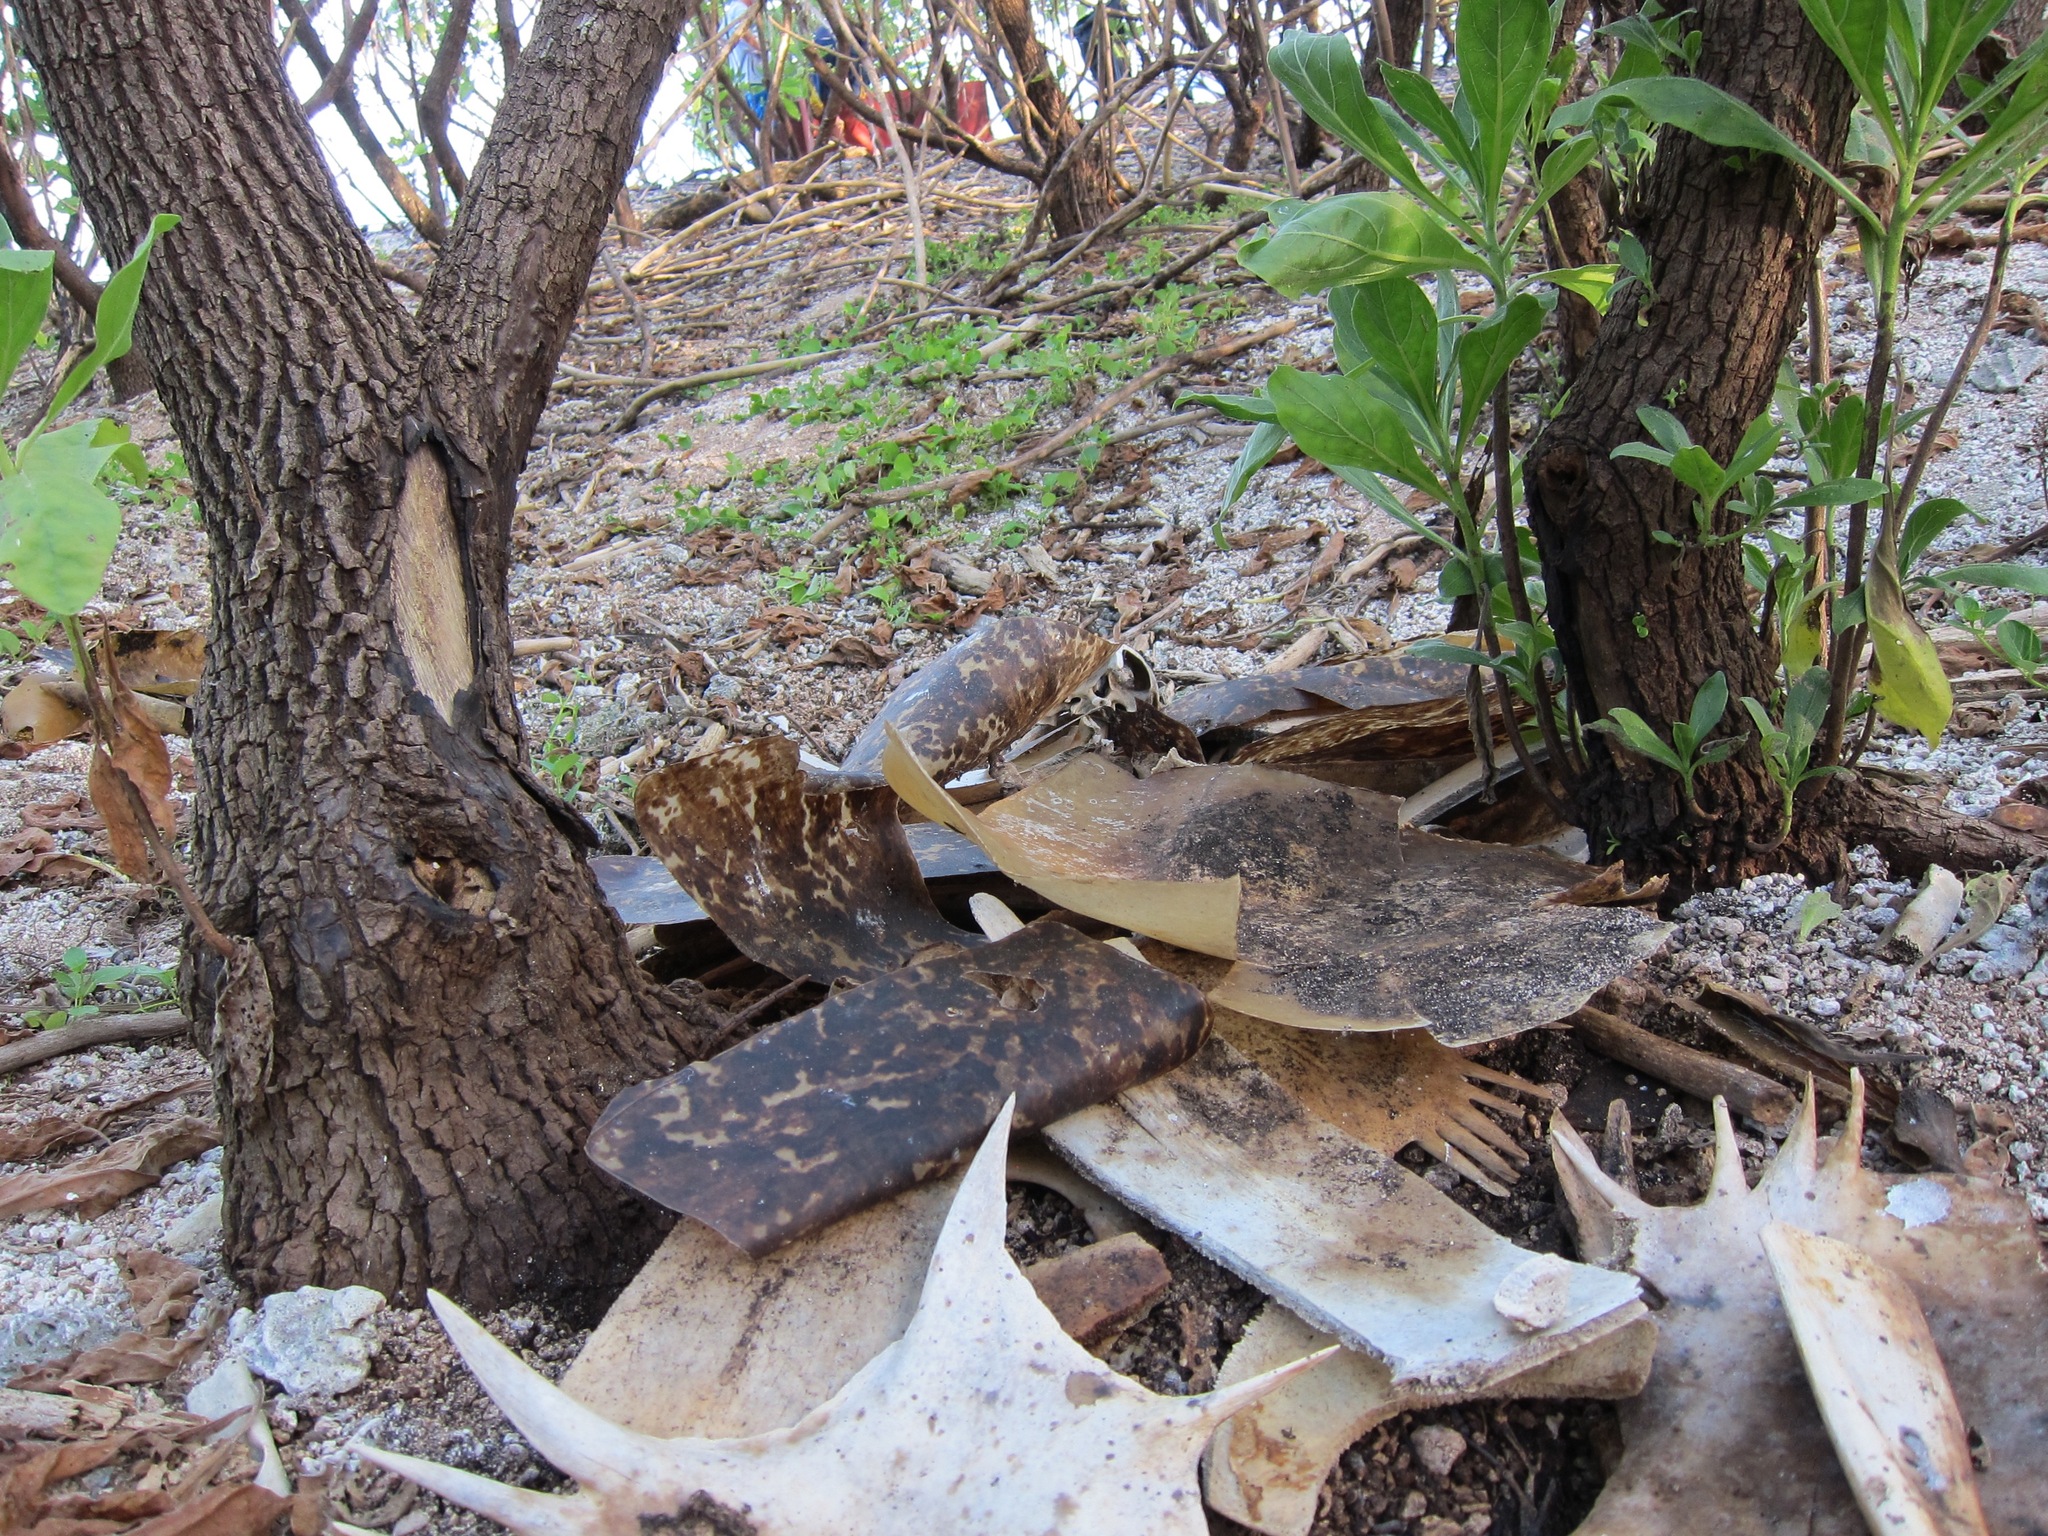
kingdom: Animalia
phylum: Chordata
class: Testudines
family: Cheloniidae
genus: Chelonia
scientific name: Chelonia mydas
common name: Green turtle
